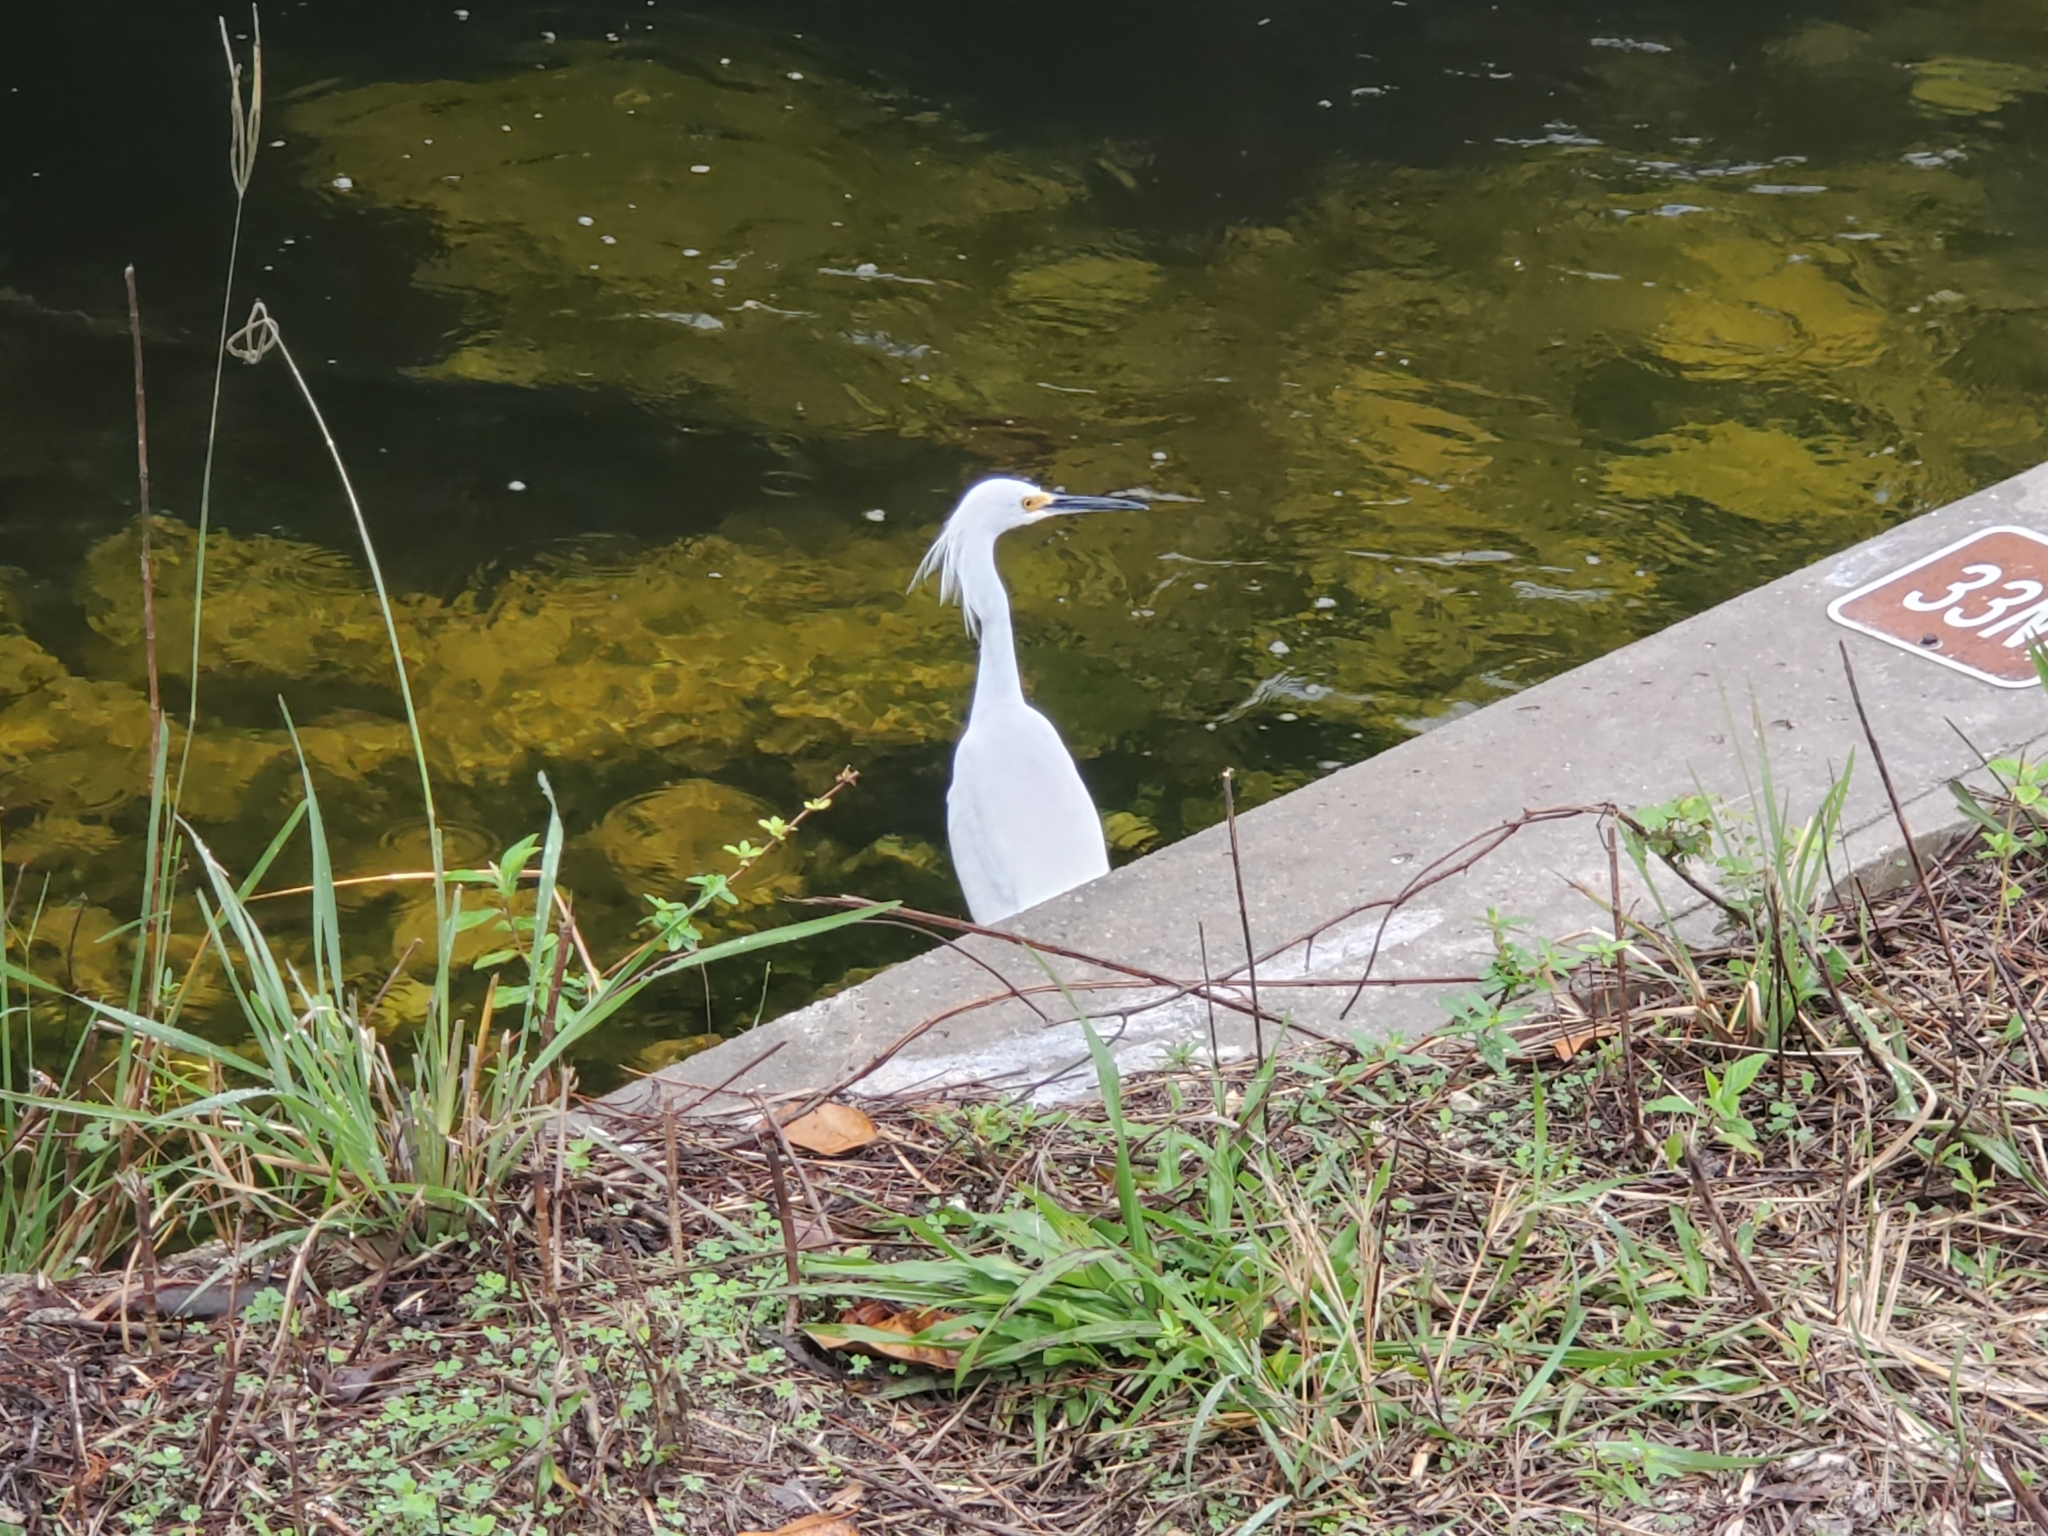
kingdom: Animalia
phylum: Chordata
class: Aves
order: Pelecaniformes
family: Ardeidae
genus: Egretta
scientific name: Egretta thula
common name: Snowy egret
